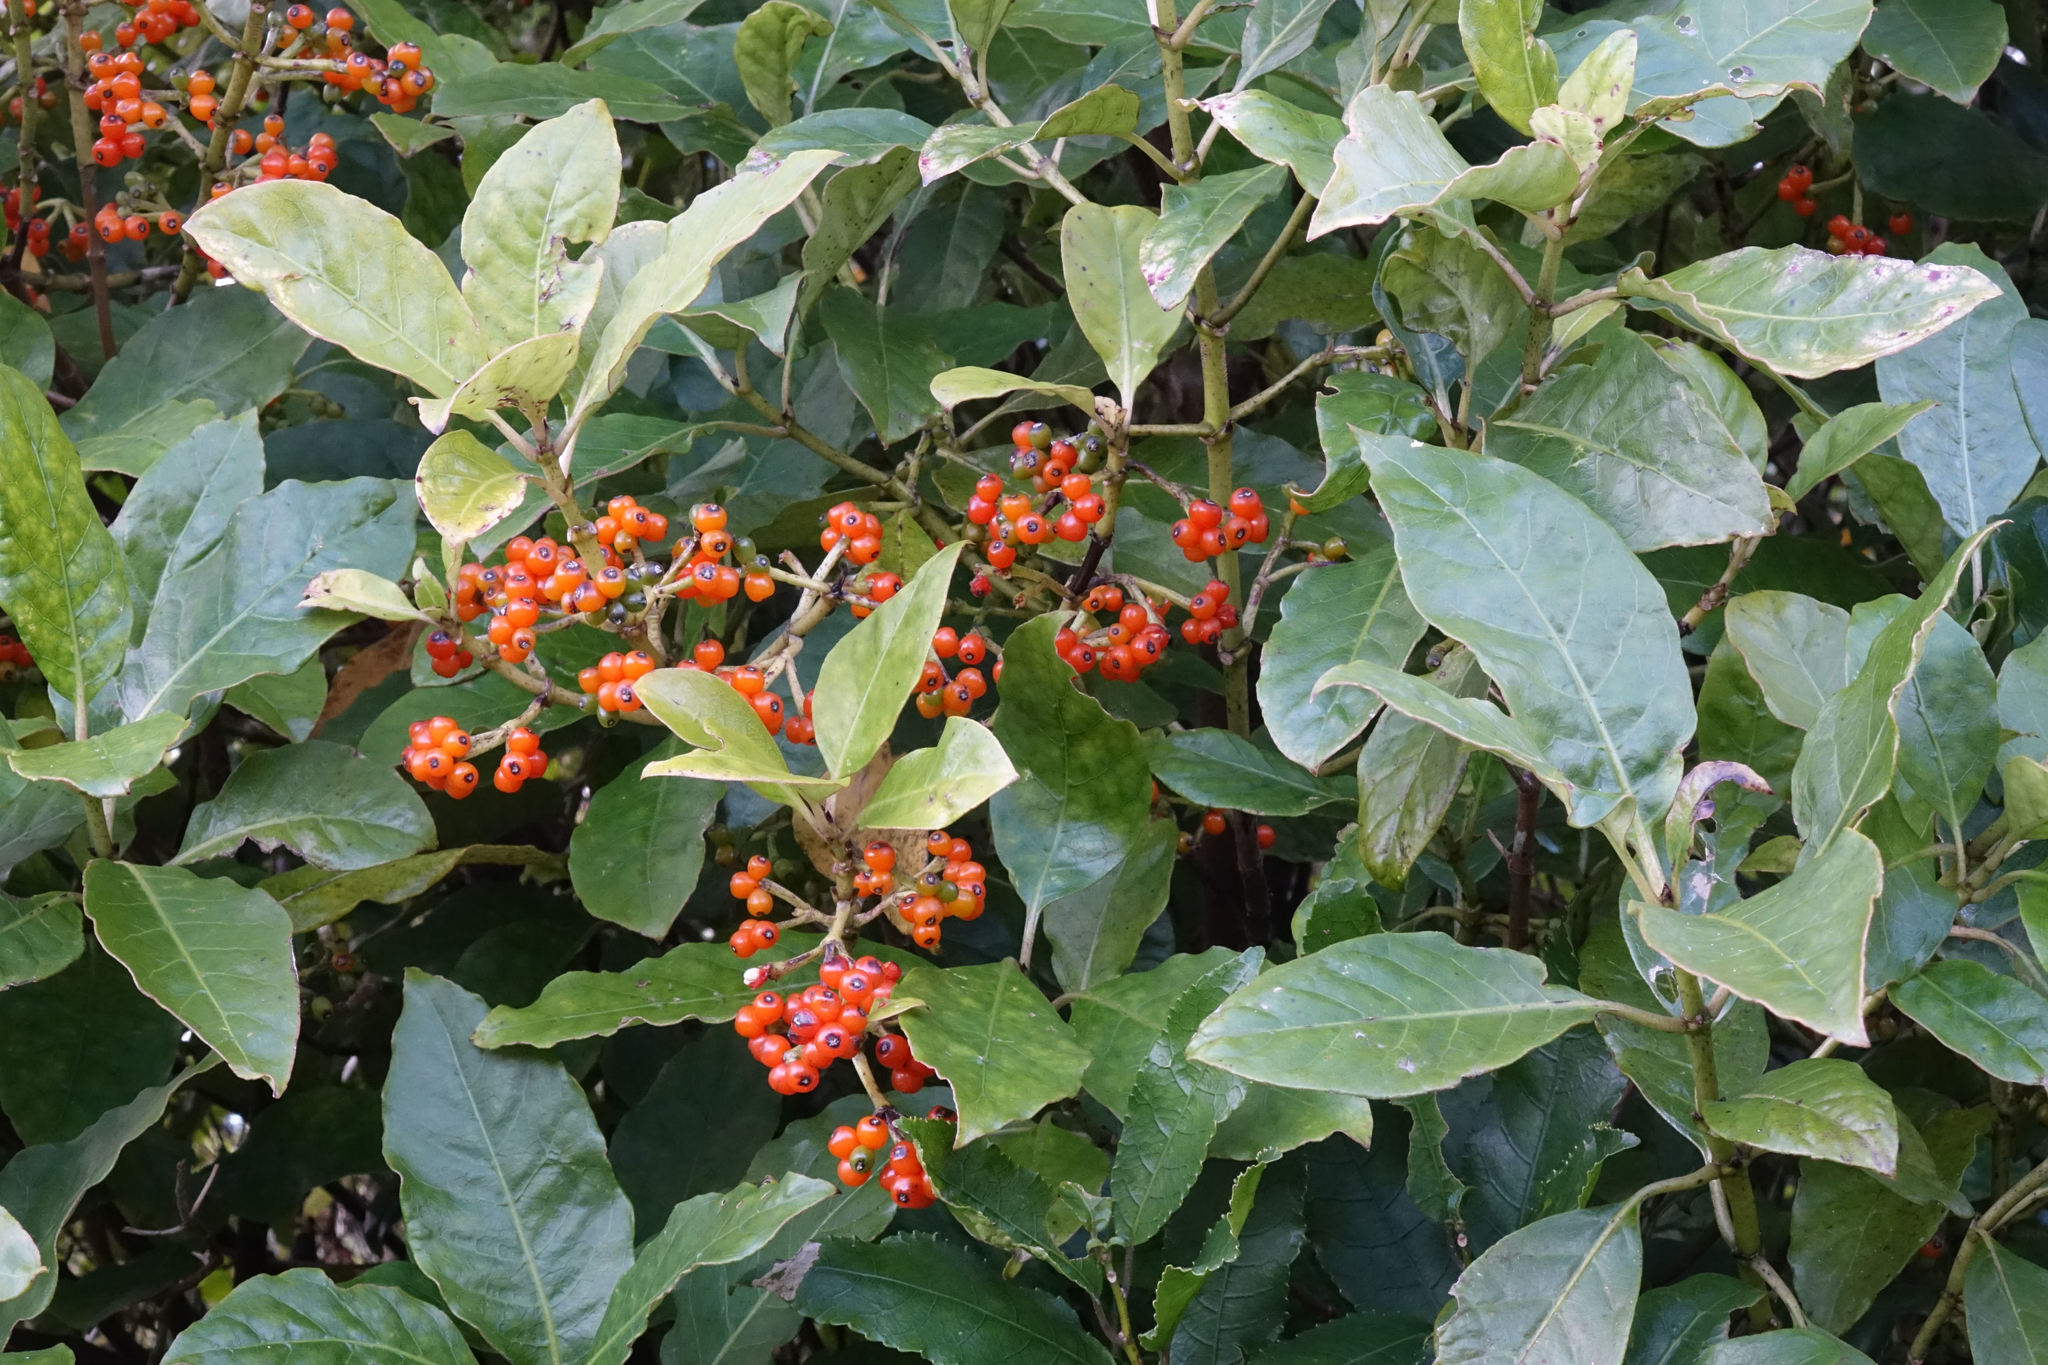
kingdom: Plantae
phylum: Tracheophyta
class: Magnoliopsida
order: Gentianales
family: Rubiaceae
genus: Coprosma
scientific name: Coprosma autumnalis
